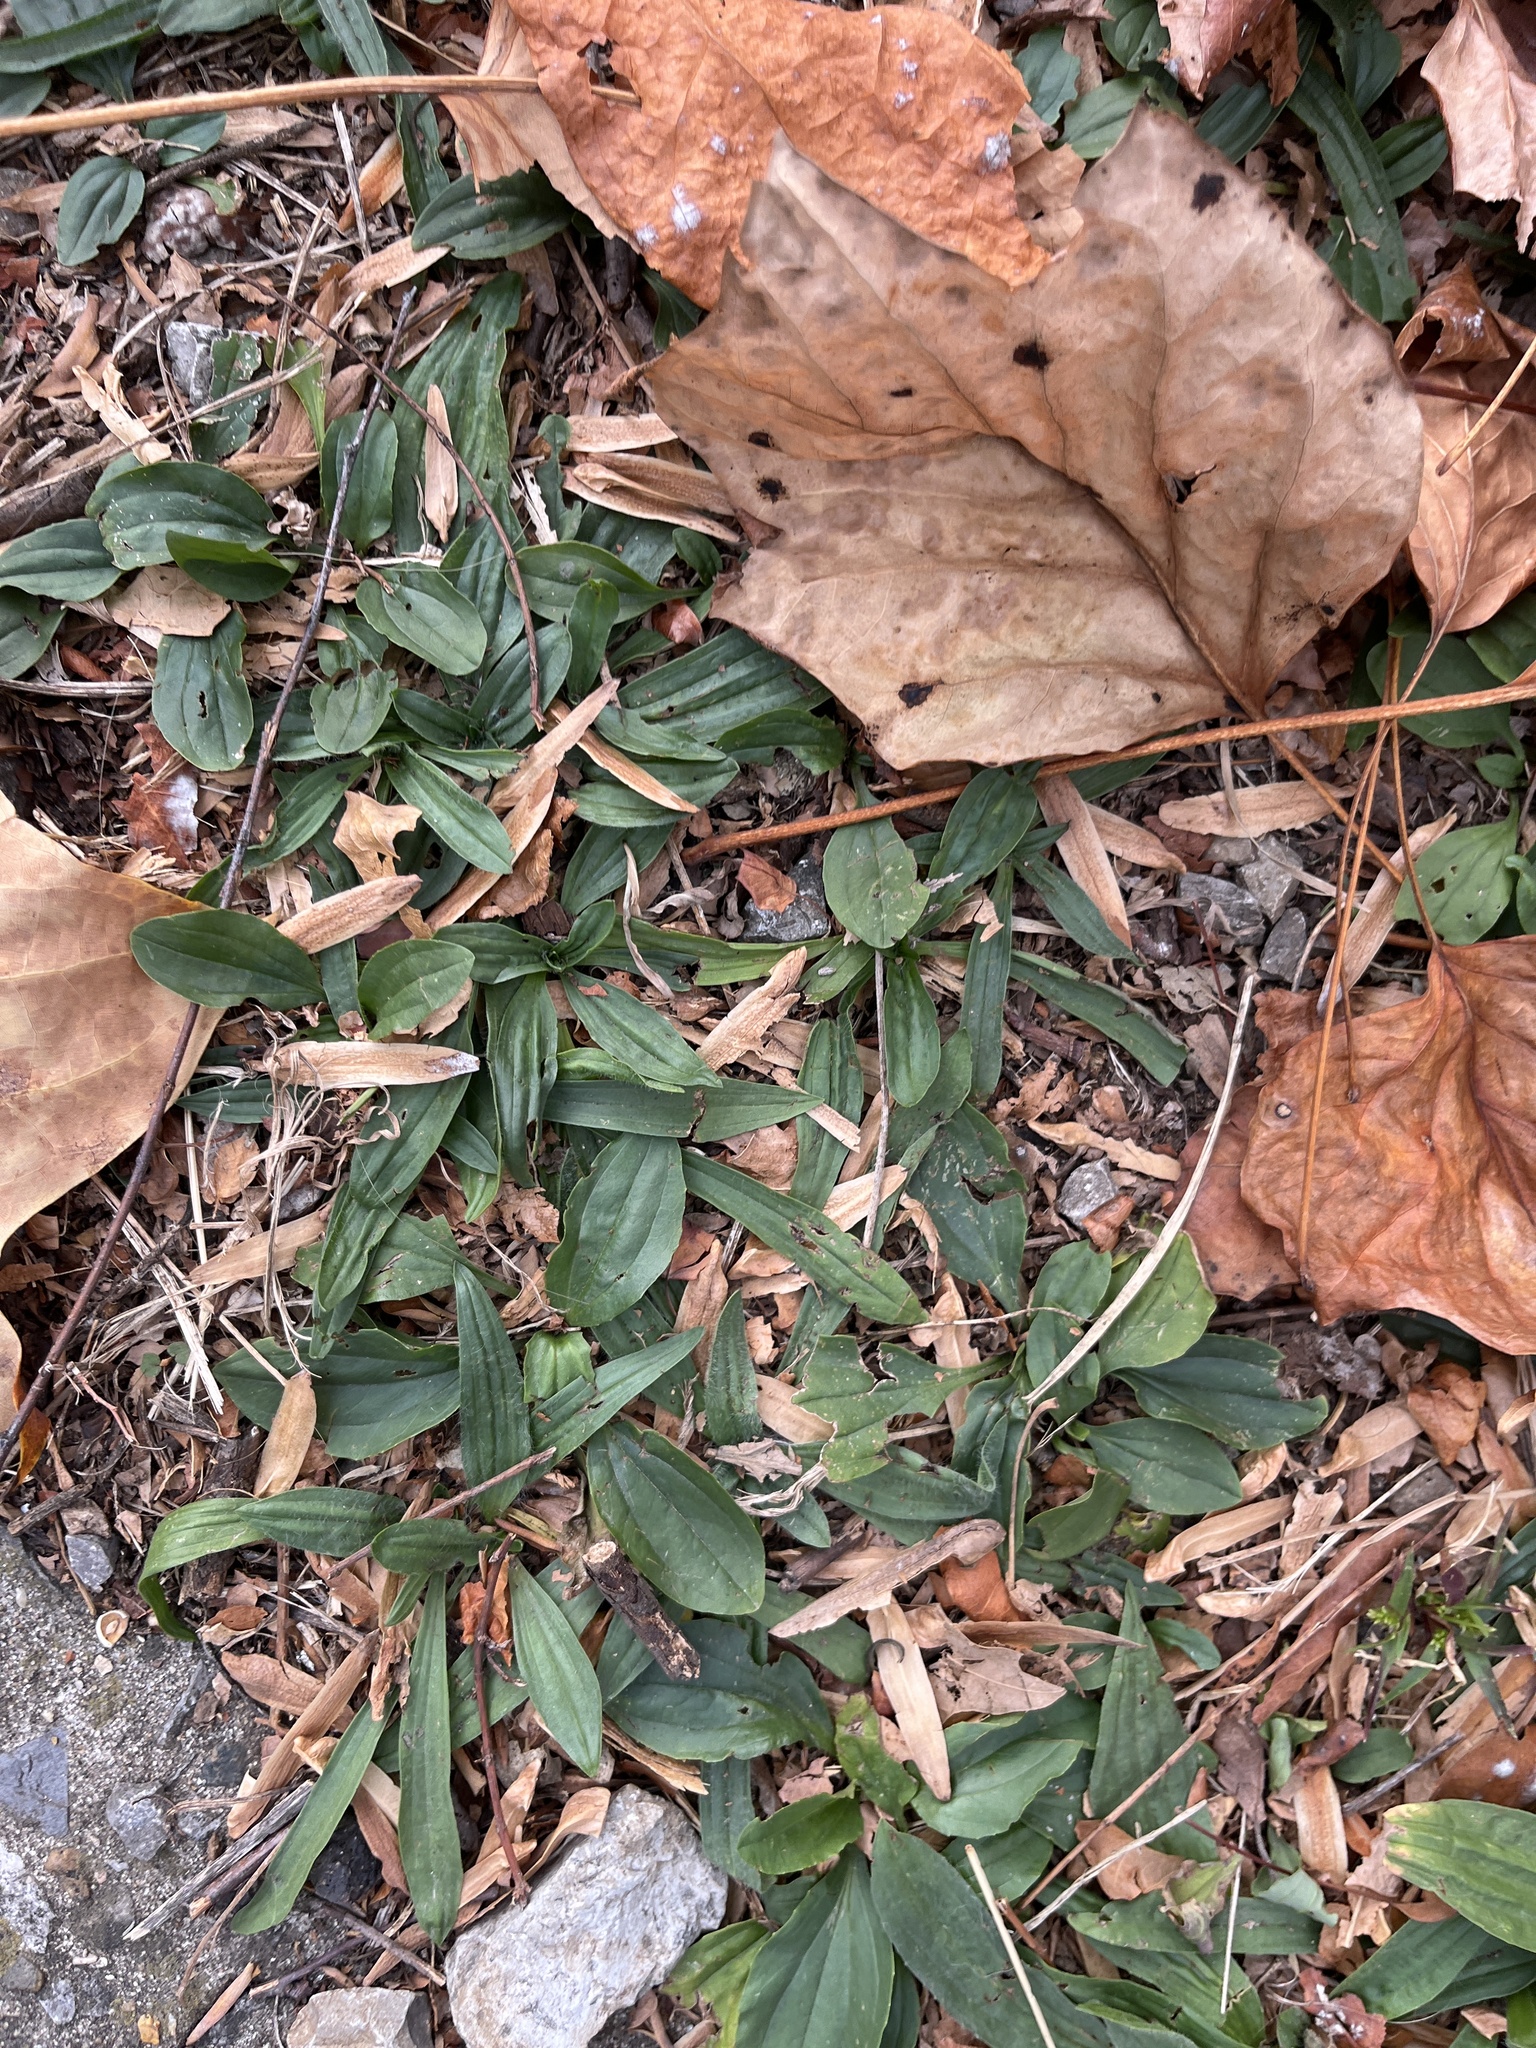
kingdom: Plantae
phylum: Tracheophyta
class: Magnoliopsida
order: Lamiales
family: Plantaginaceae
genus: Plantago
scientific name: Plantago lanceolata
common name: Ribwort plantain
